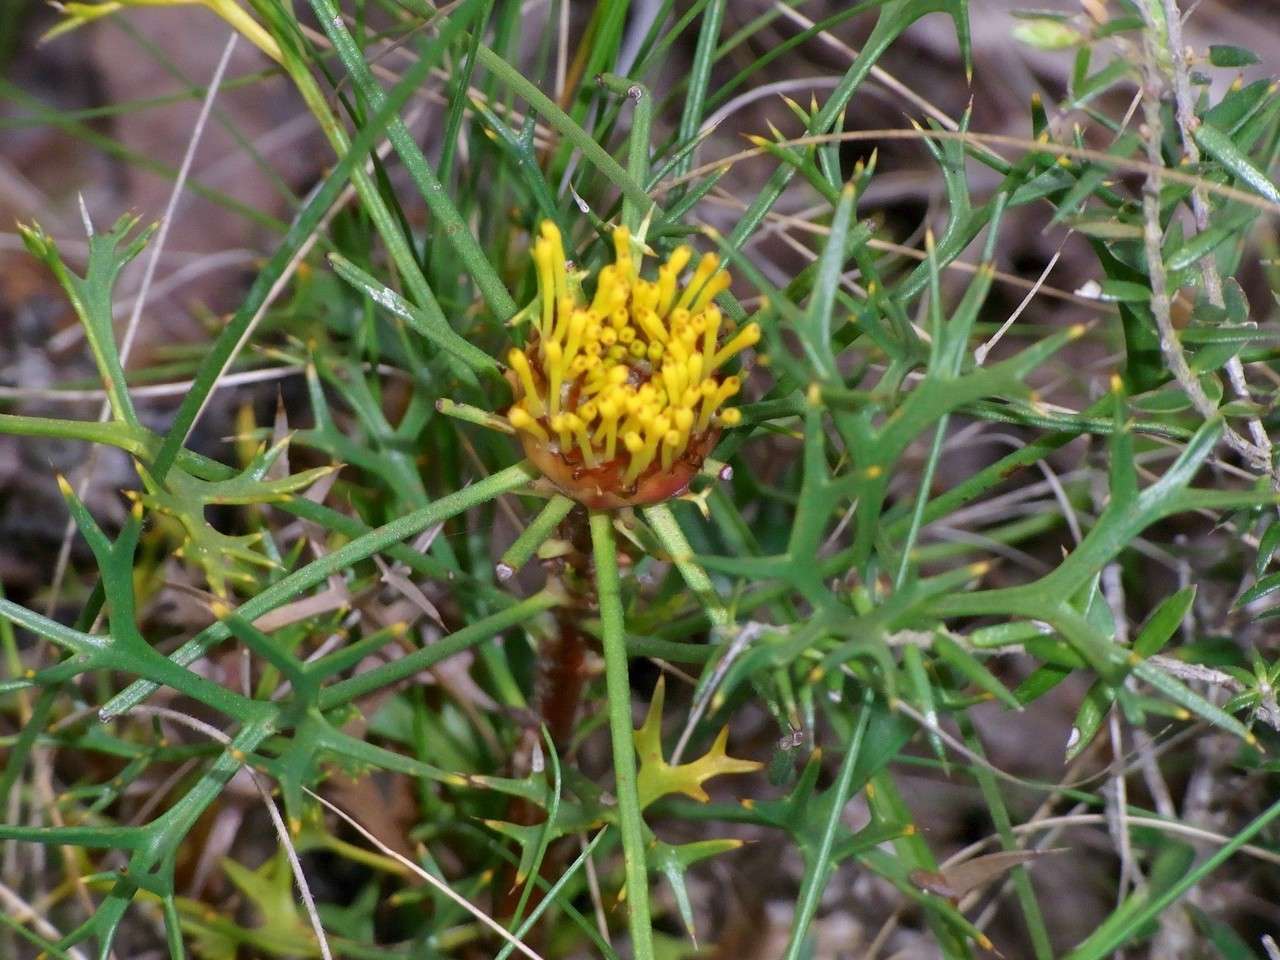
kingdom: Plantae
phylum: Tracheophyta
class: Magnoliopsida
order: Proteales
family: Proteaceae
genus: Isopogon
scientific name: Isopogon ceratophyllus
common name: Horny cone-bush
